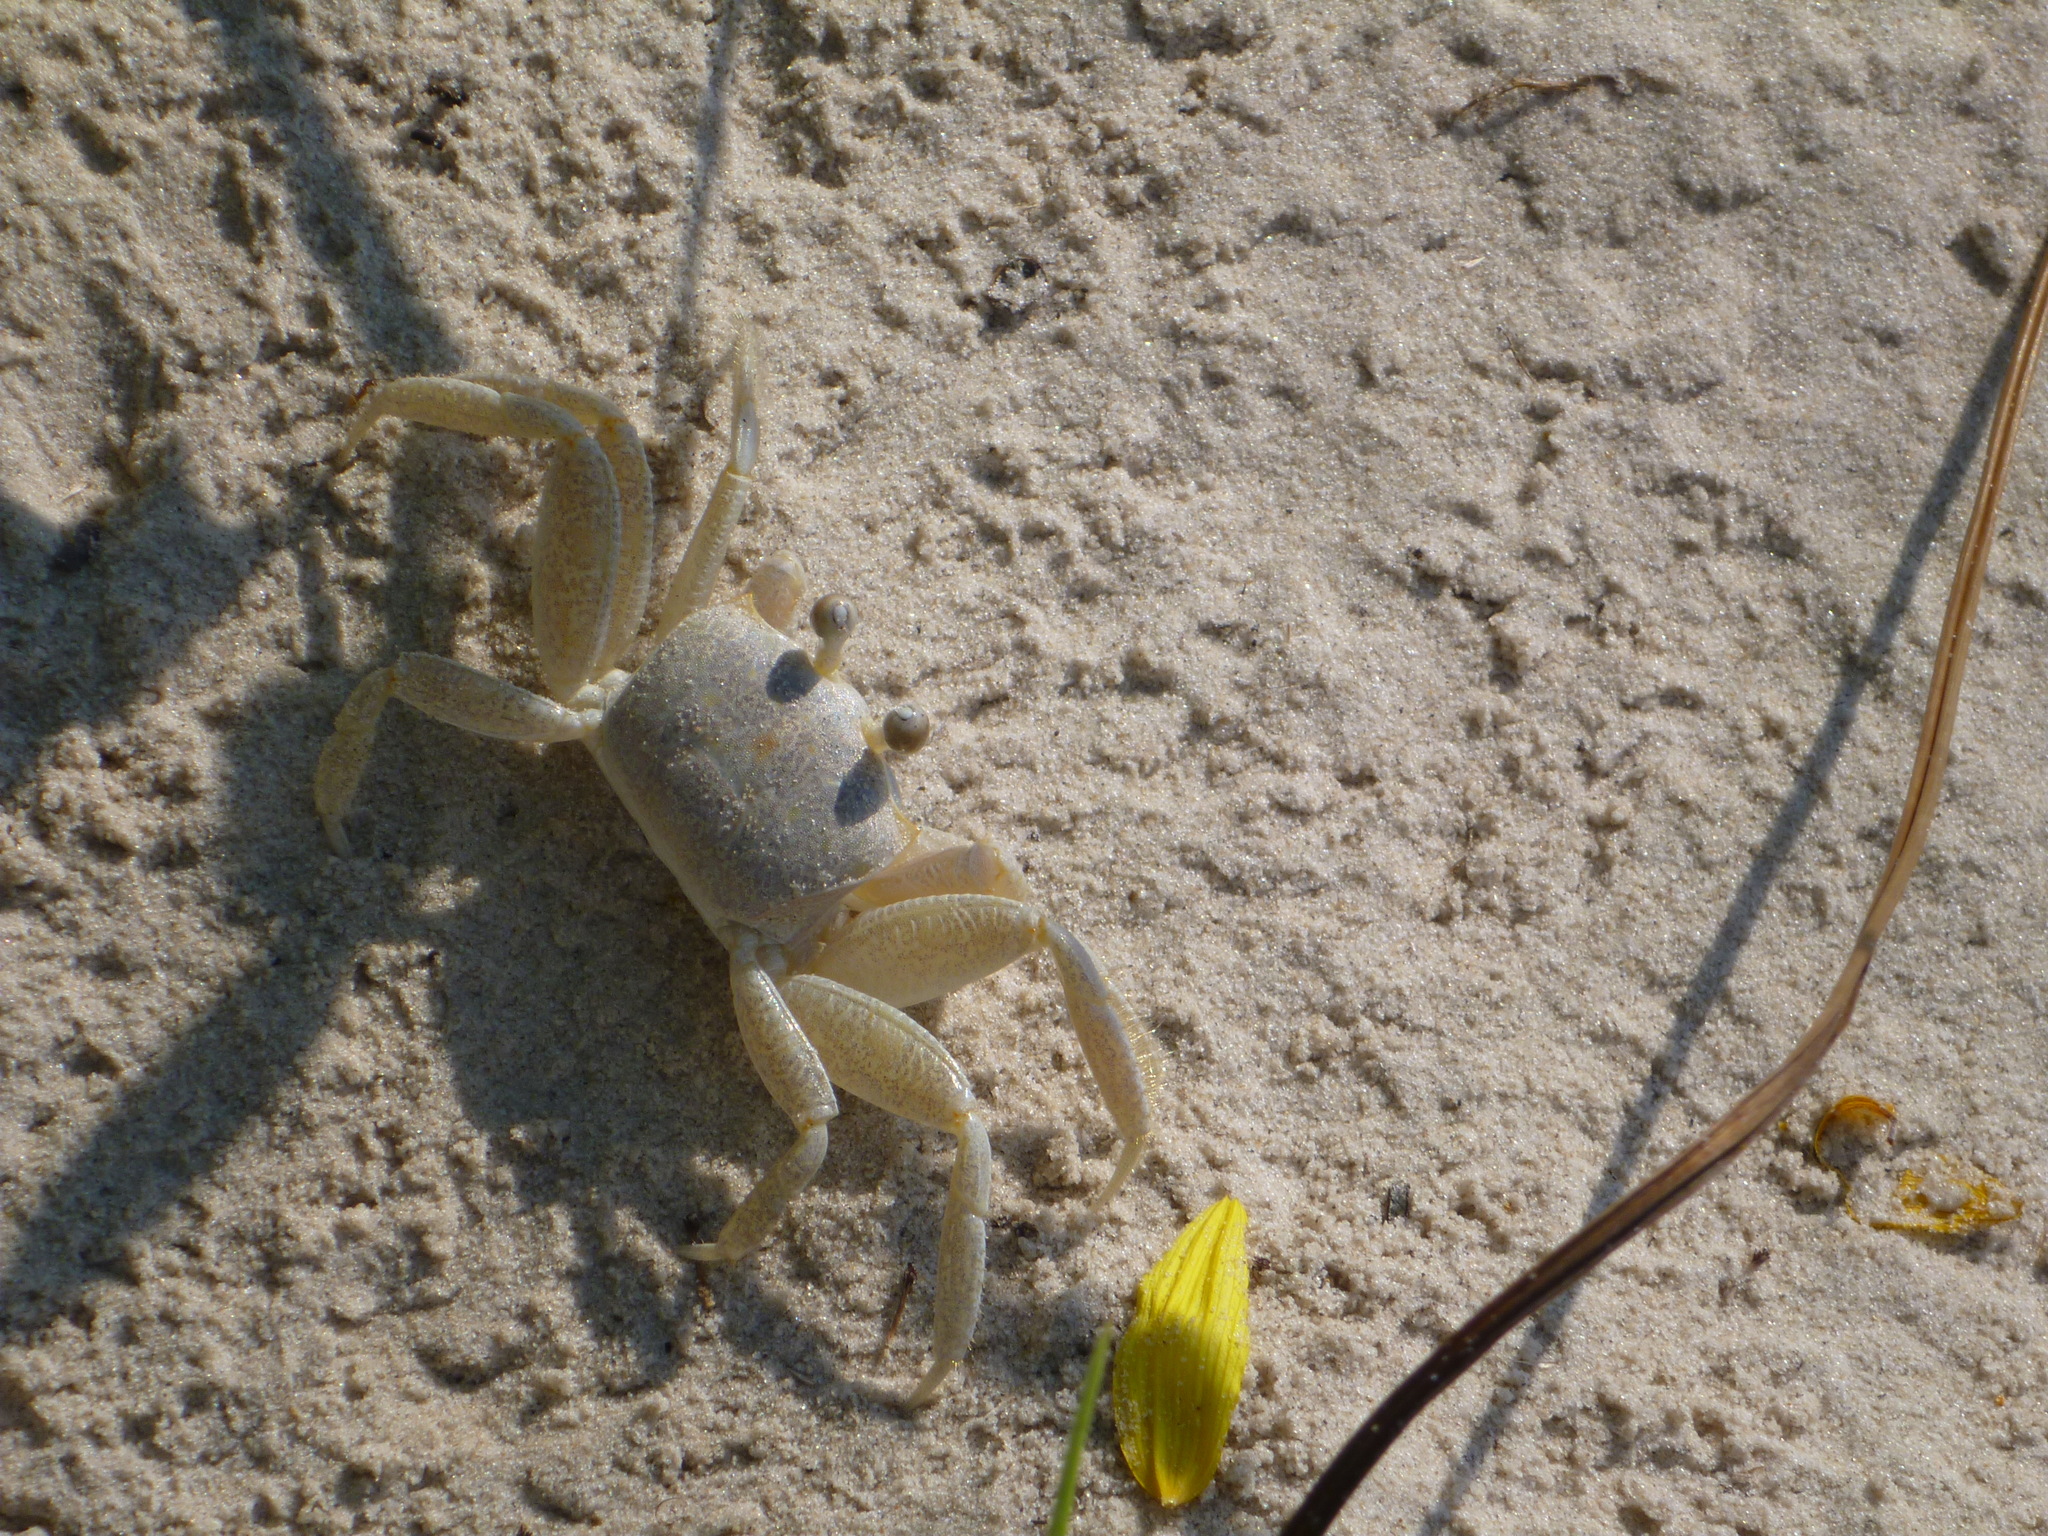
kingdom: Animalia
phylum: Arthropoda
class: Malacostraca
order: Decapoda
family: Ocypodidae
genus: Ocypode
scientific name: Ocypode quadrata
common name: Ghost crab
